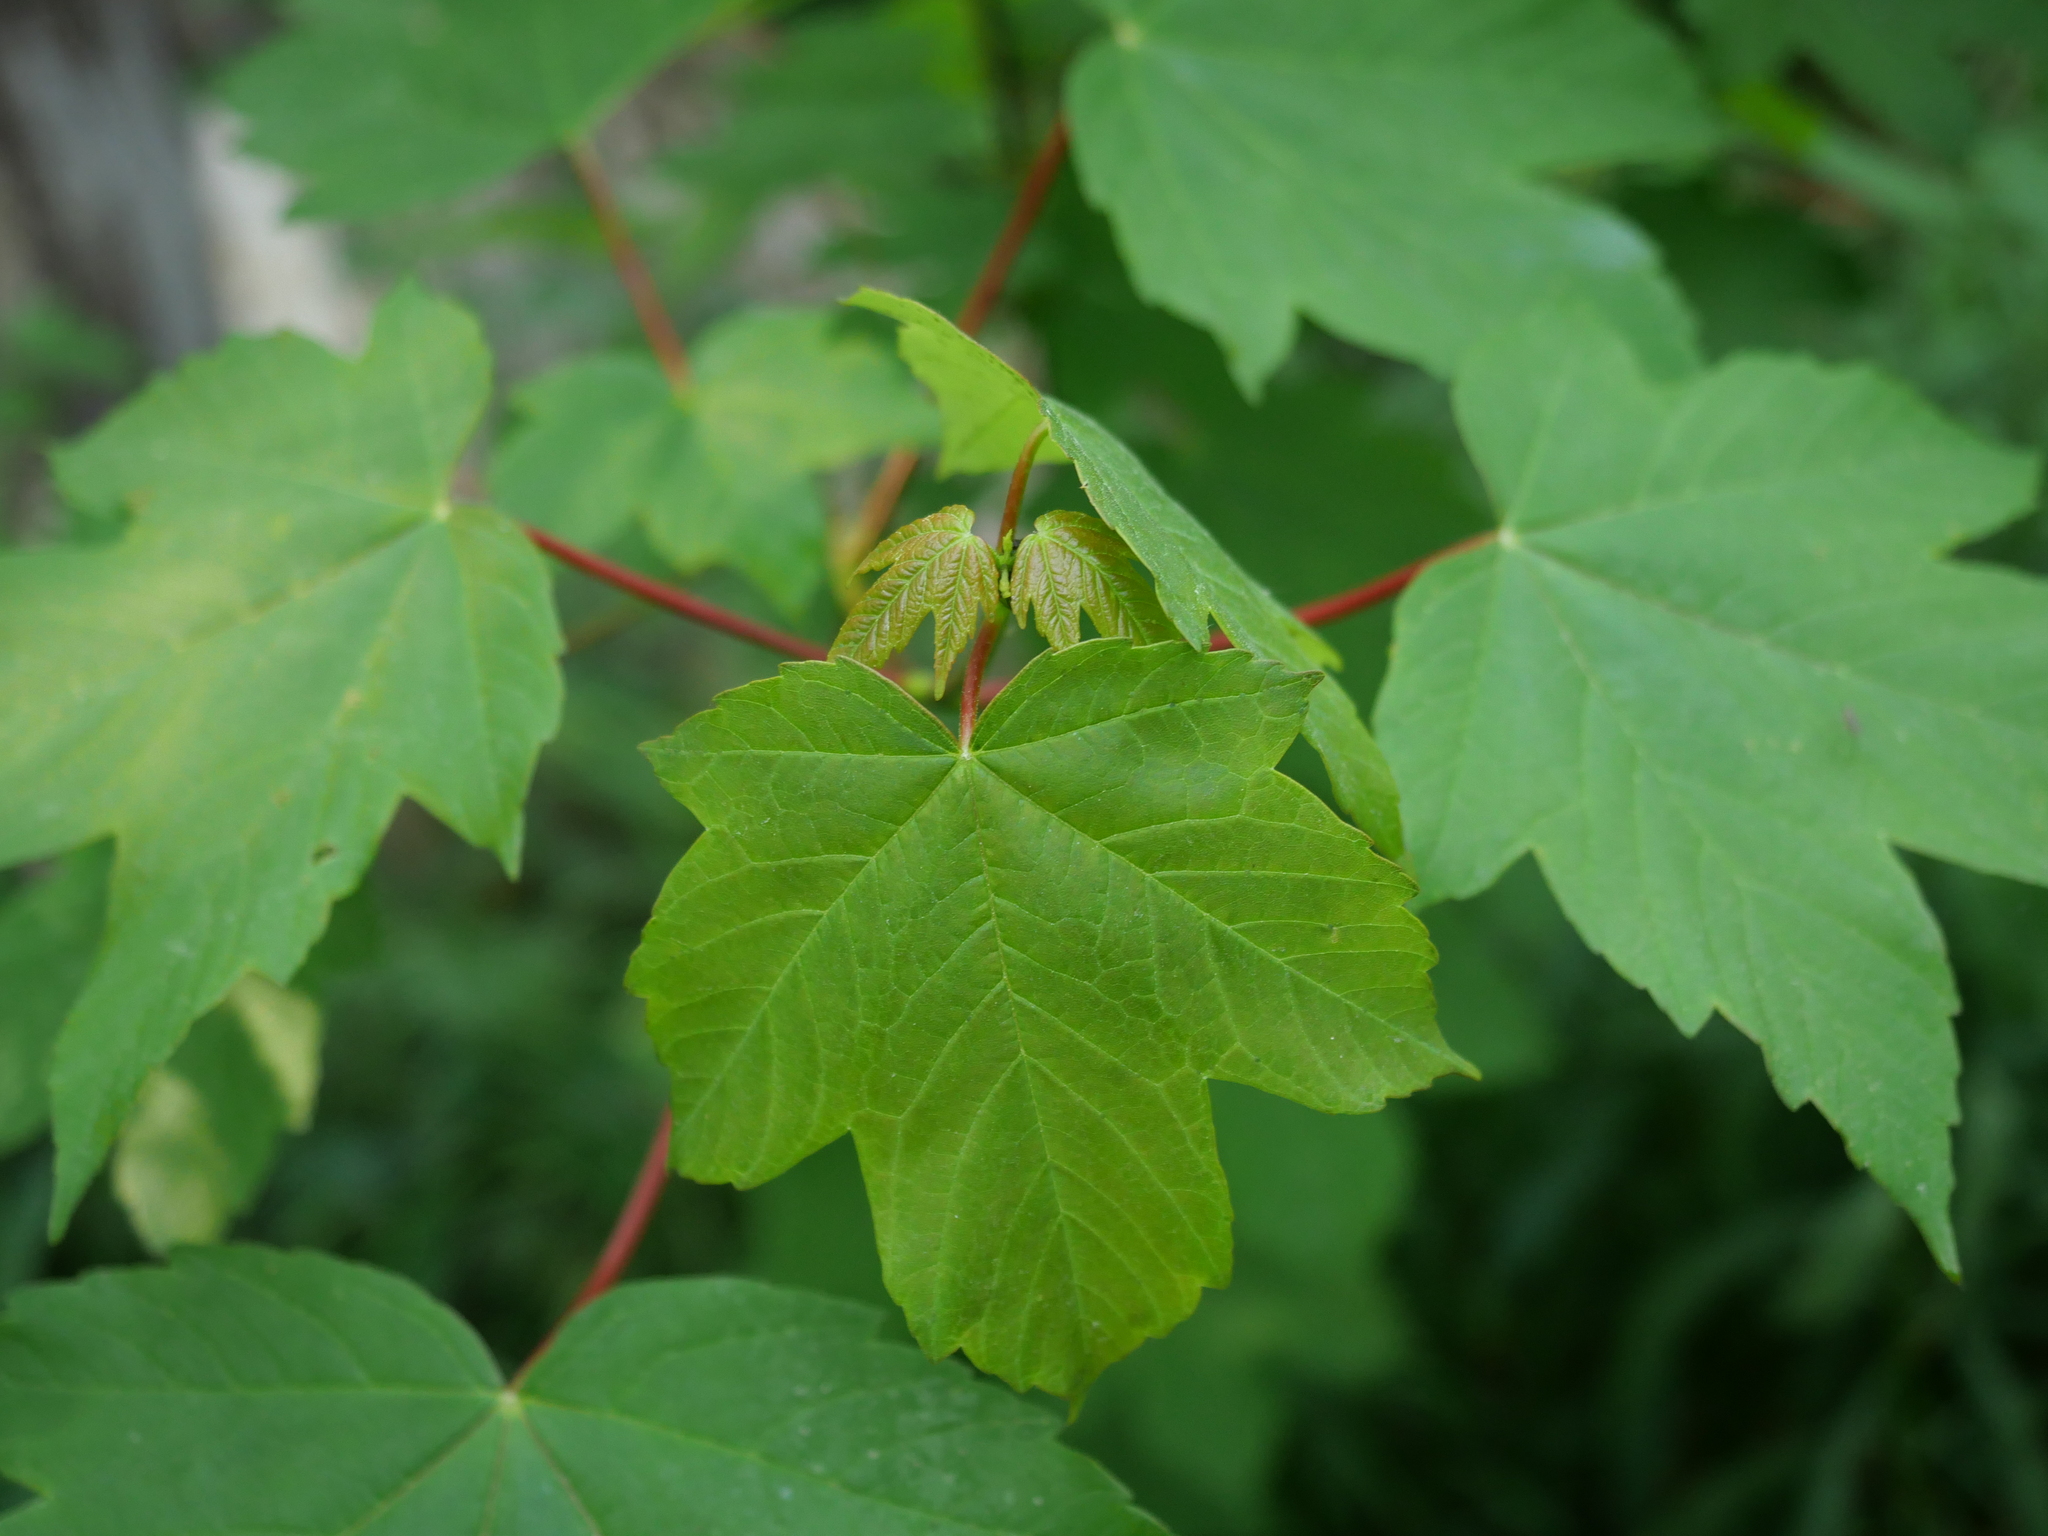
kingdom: Plantae
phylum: Tracheophyta
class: Magnoliopsida
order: Sapindales
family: Sapindaceae
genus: Acer
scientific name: Acer pseudoplatanus
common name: Sycamore
